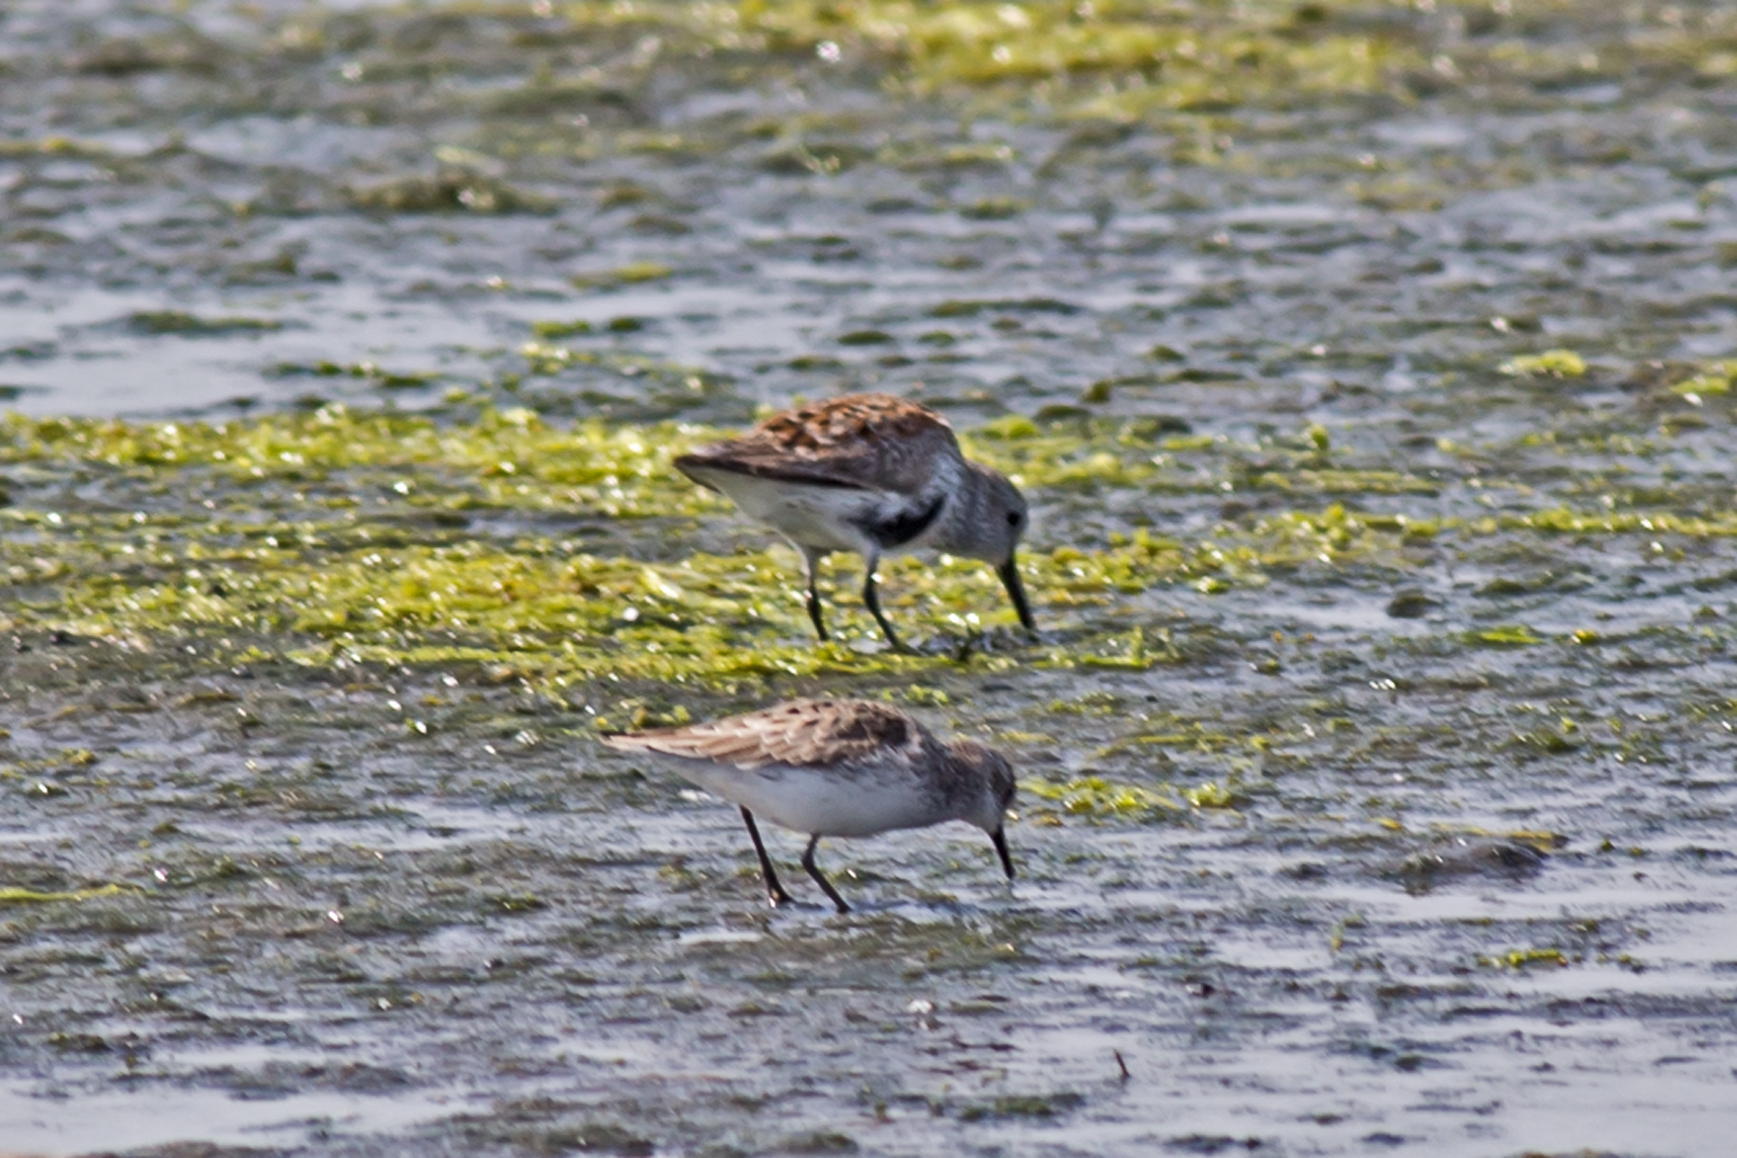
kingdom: Animalia
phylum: Chordata
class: Aves
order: Charadriiformes
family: Scolopacidae
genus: Calidris
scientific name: Calidris pusilla
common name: Semipalmated sandpiper
